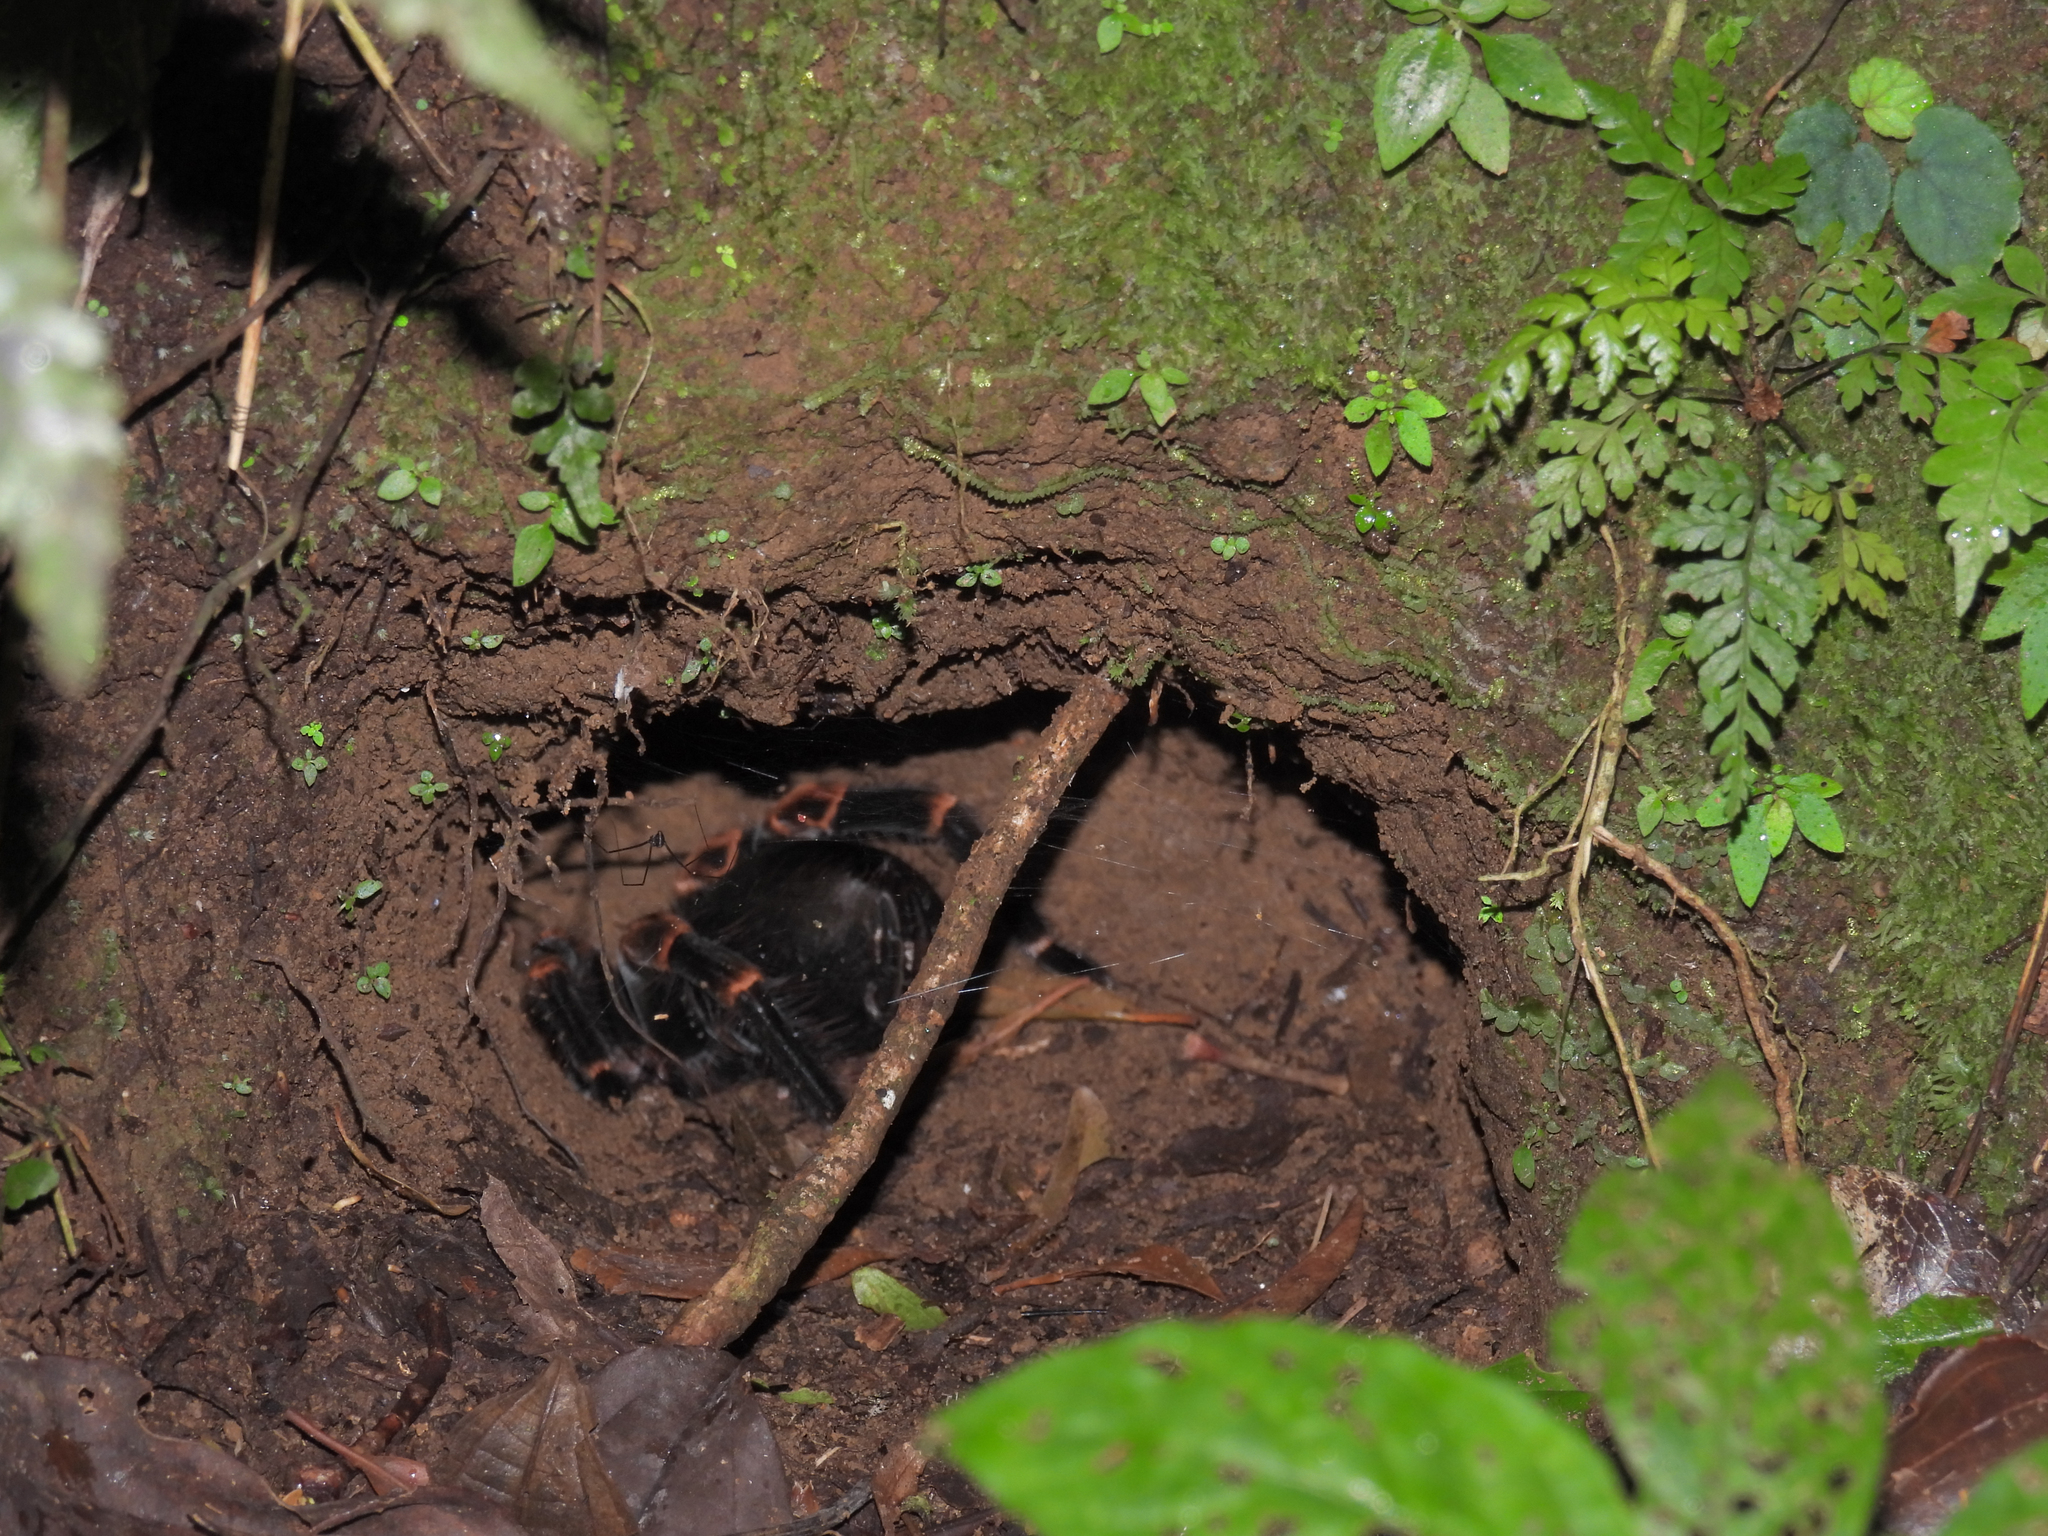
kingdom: Animalia
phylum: Arthropoda
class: Arachnida
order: Araneae
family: Theraphosidae
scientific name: Theraphosidae
